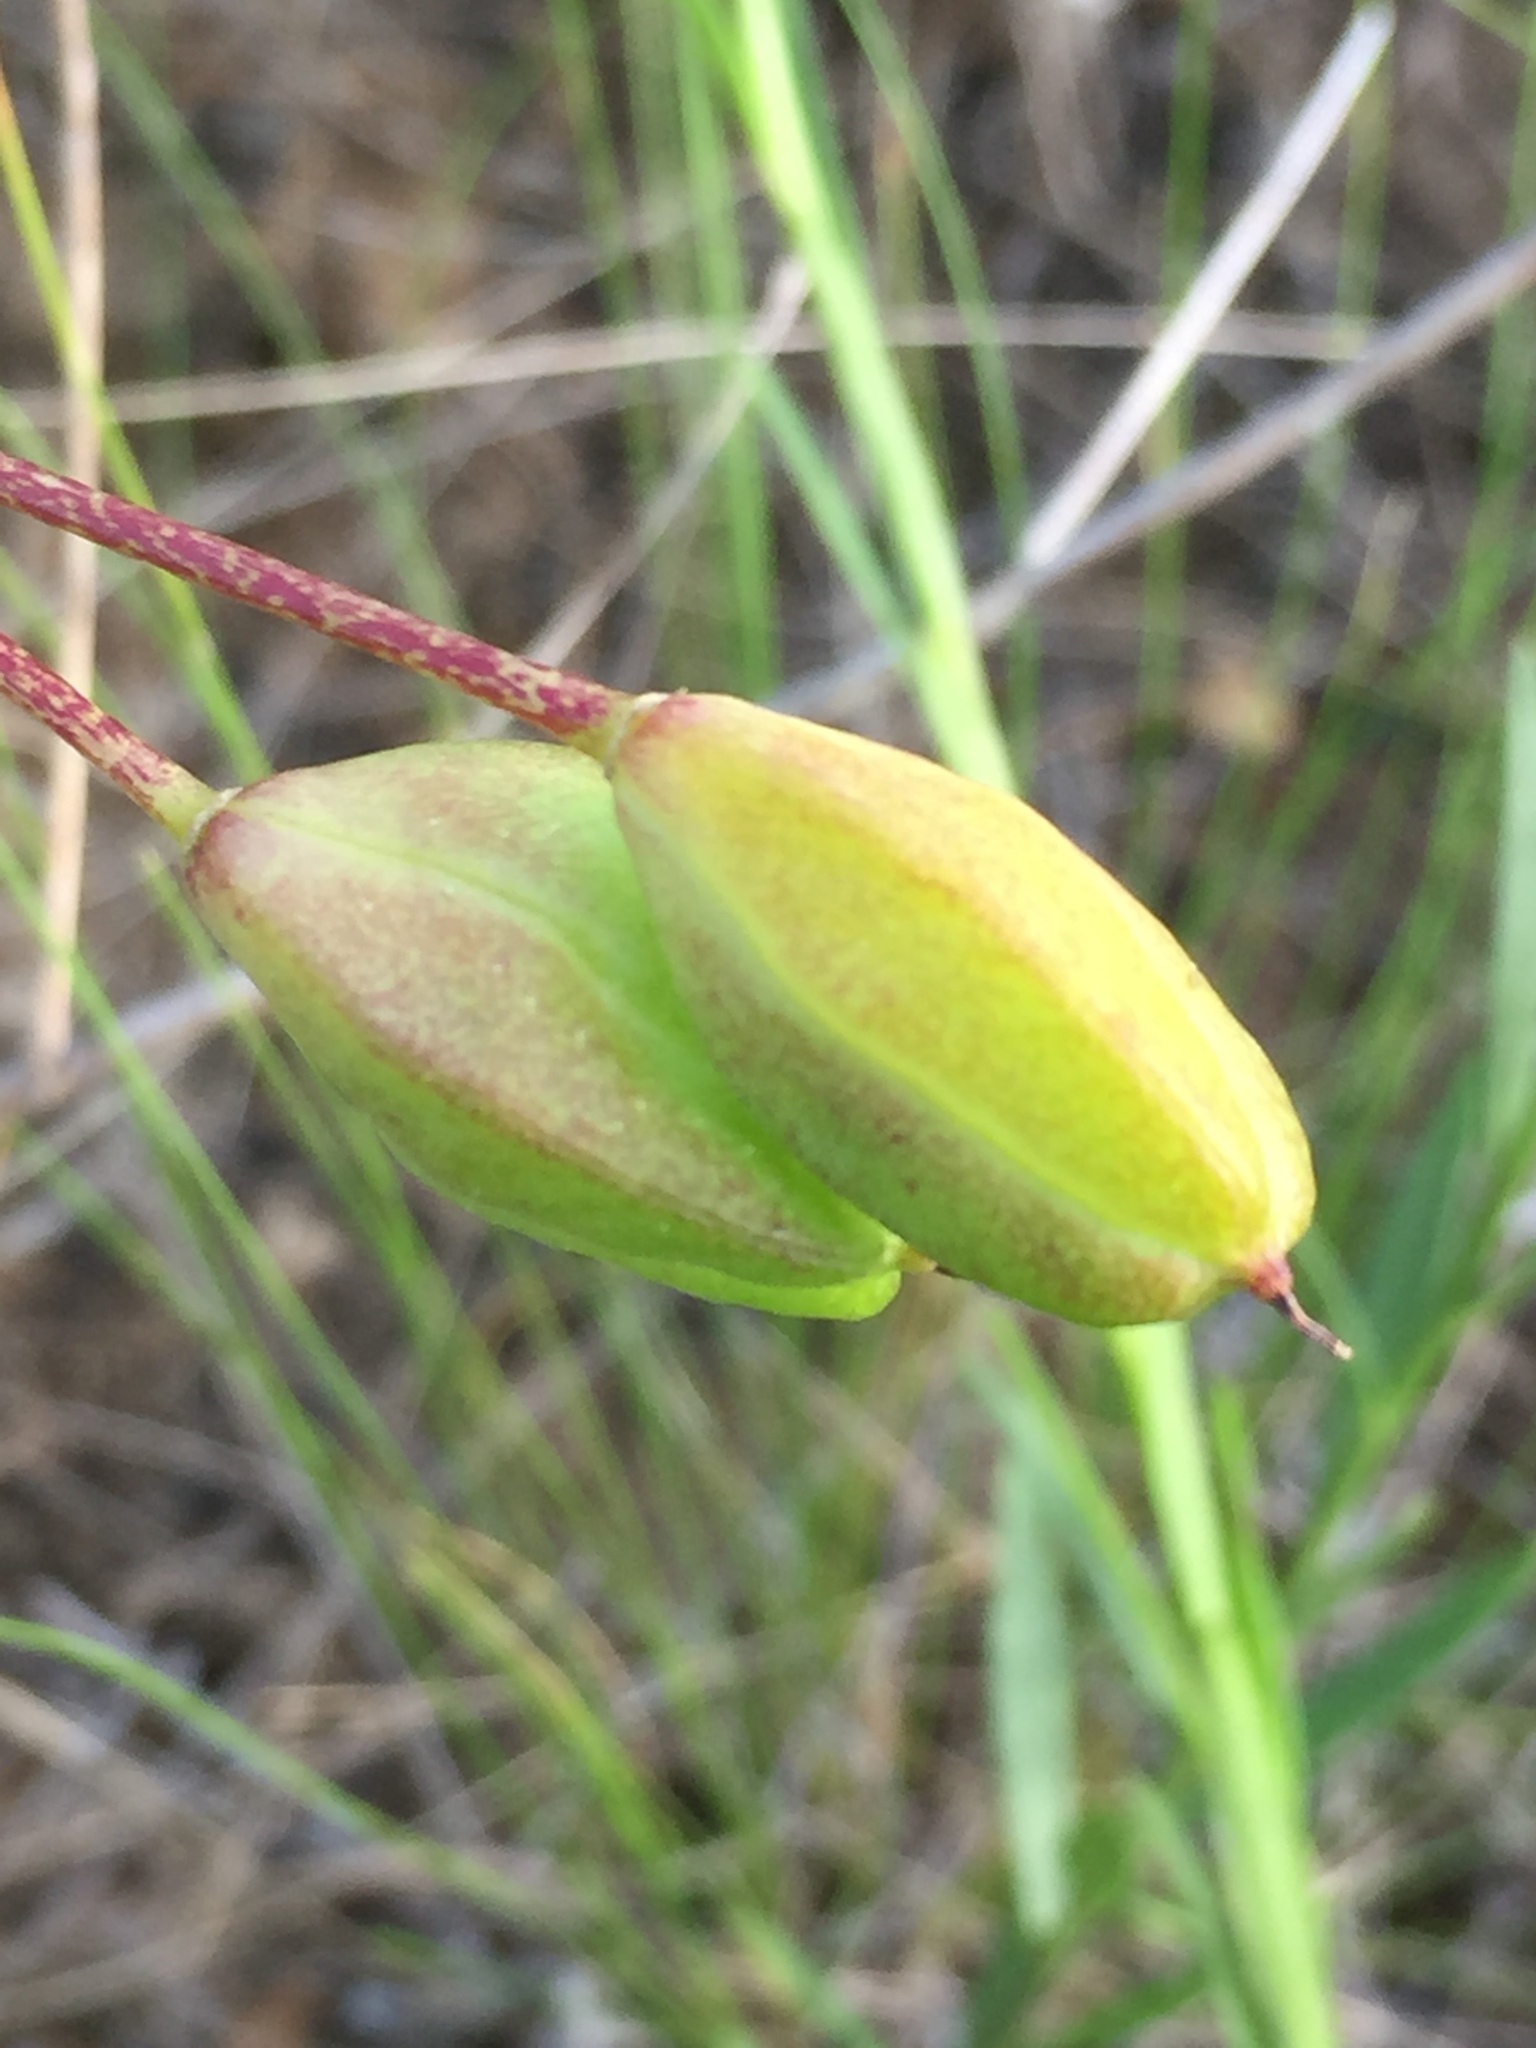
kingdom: Plantae
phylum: Tracheophyta
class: Liliopsida
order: Asparagales
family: Asparagaceae
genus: Bellevalia
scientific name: Bellevalia speciosa
